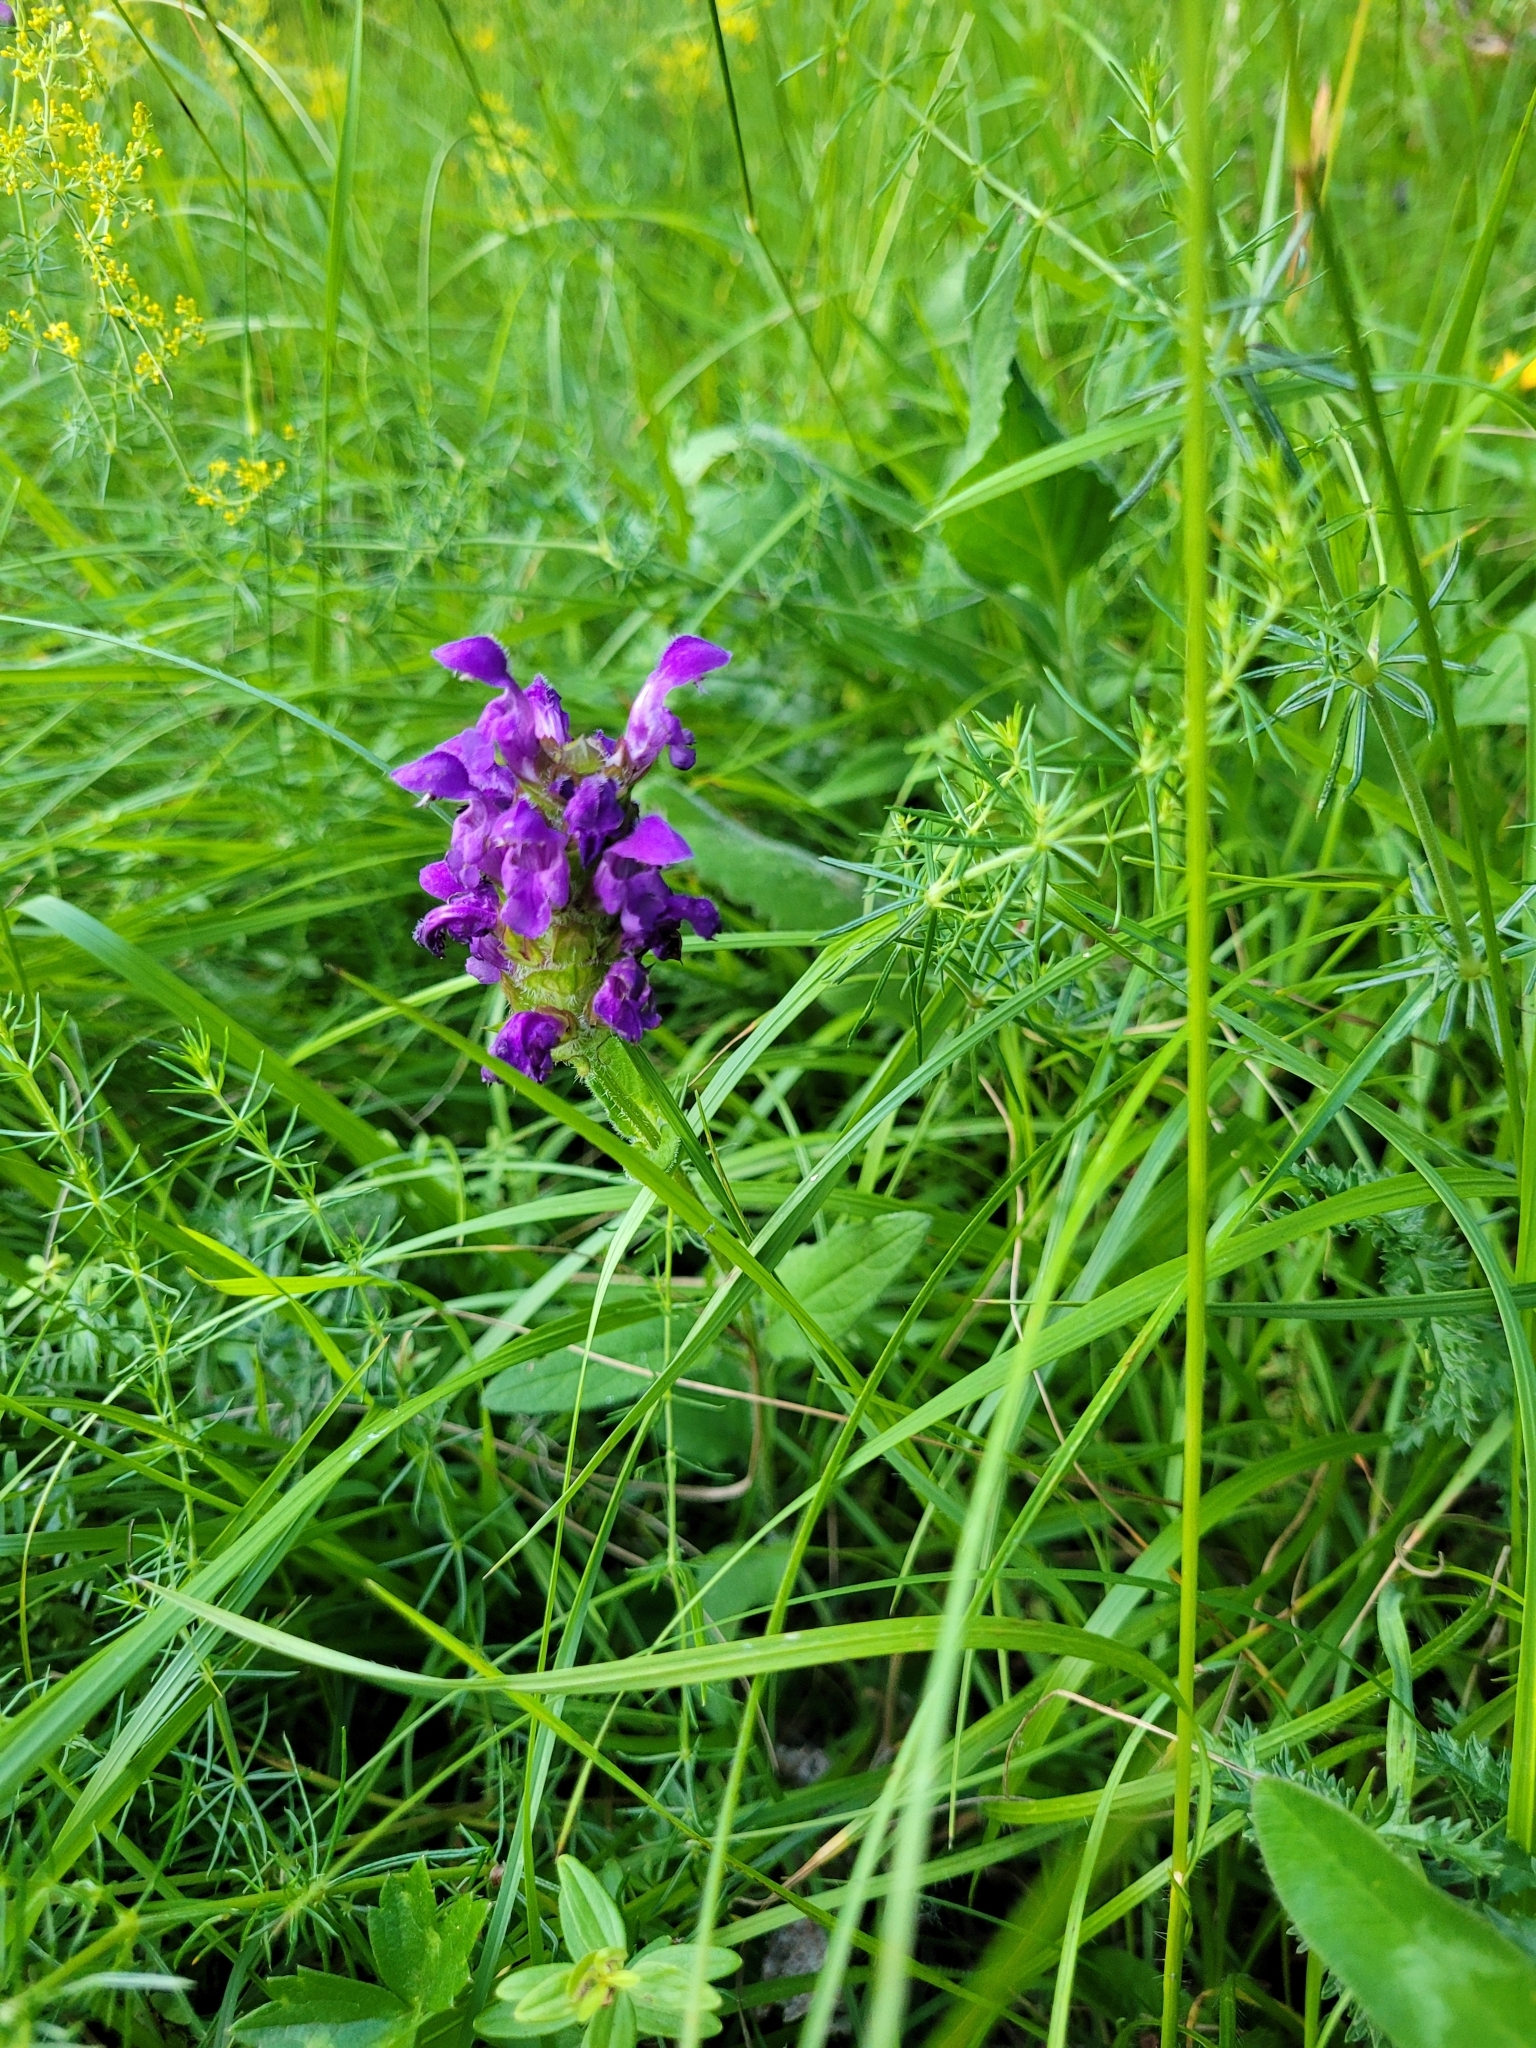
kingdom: Plantae
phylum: Tracheophyta
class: Magnoliopsida
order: Lamiales
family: Lamiaceae
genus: Prunella
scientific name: Prunella grandiflora
